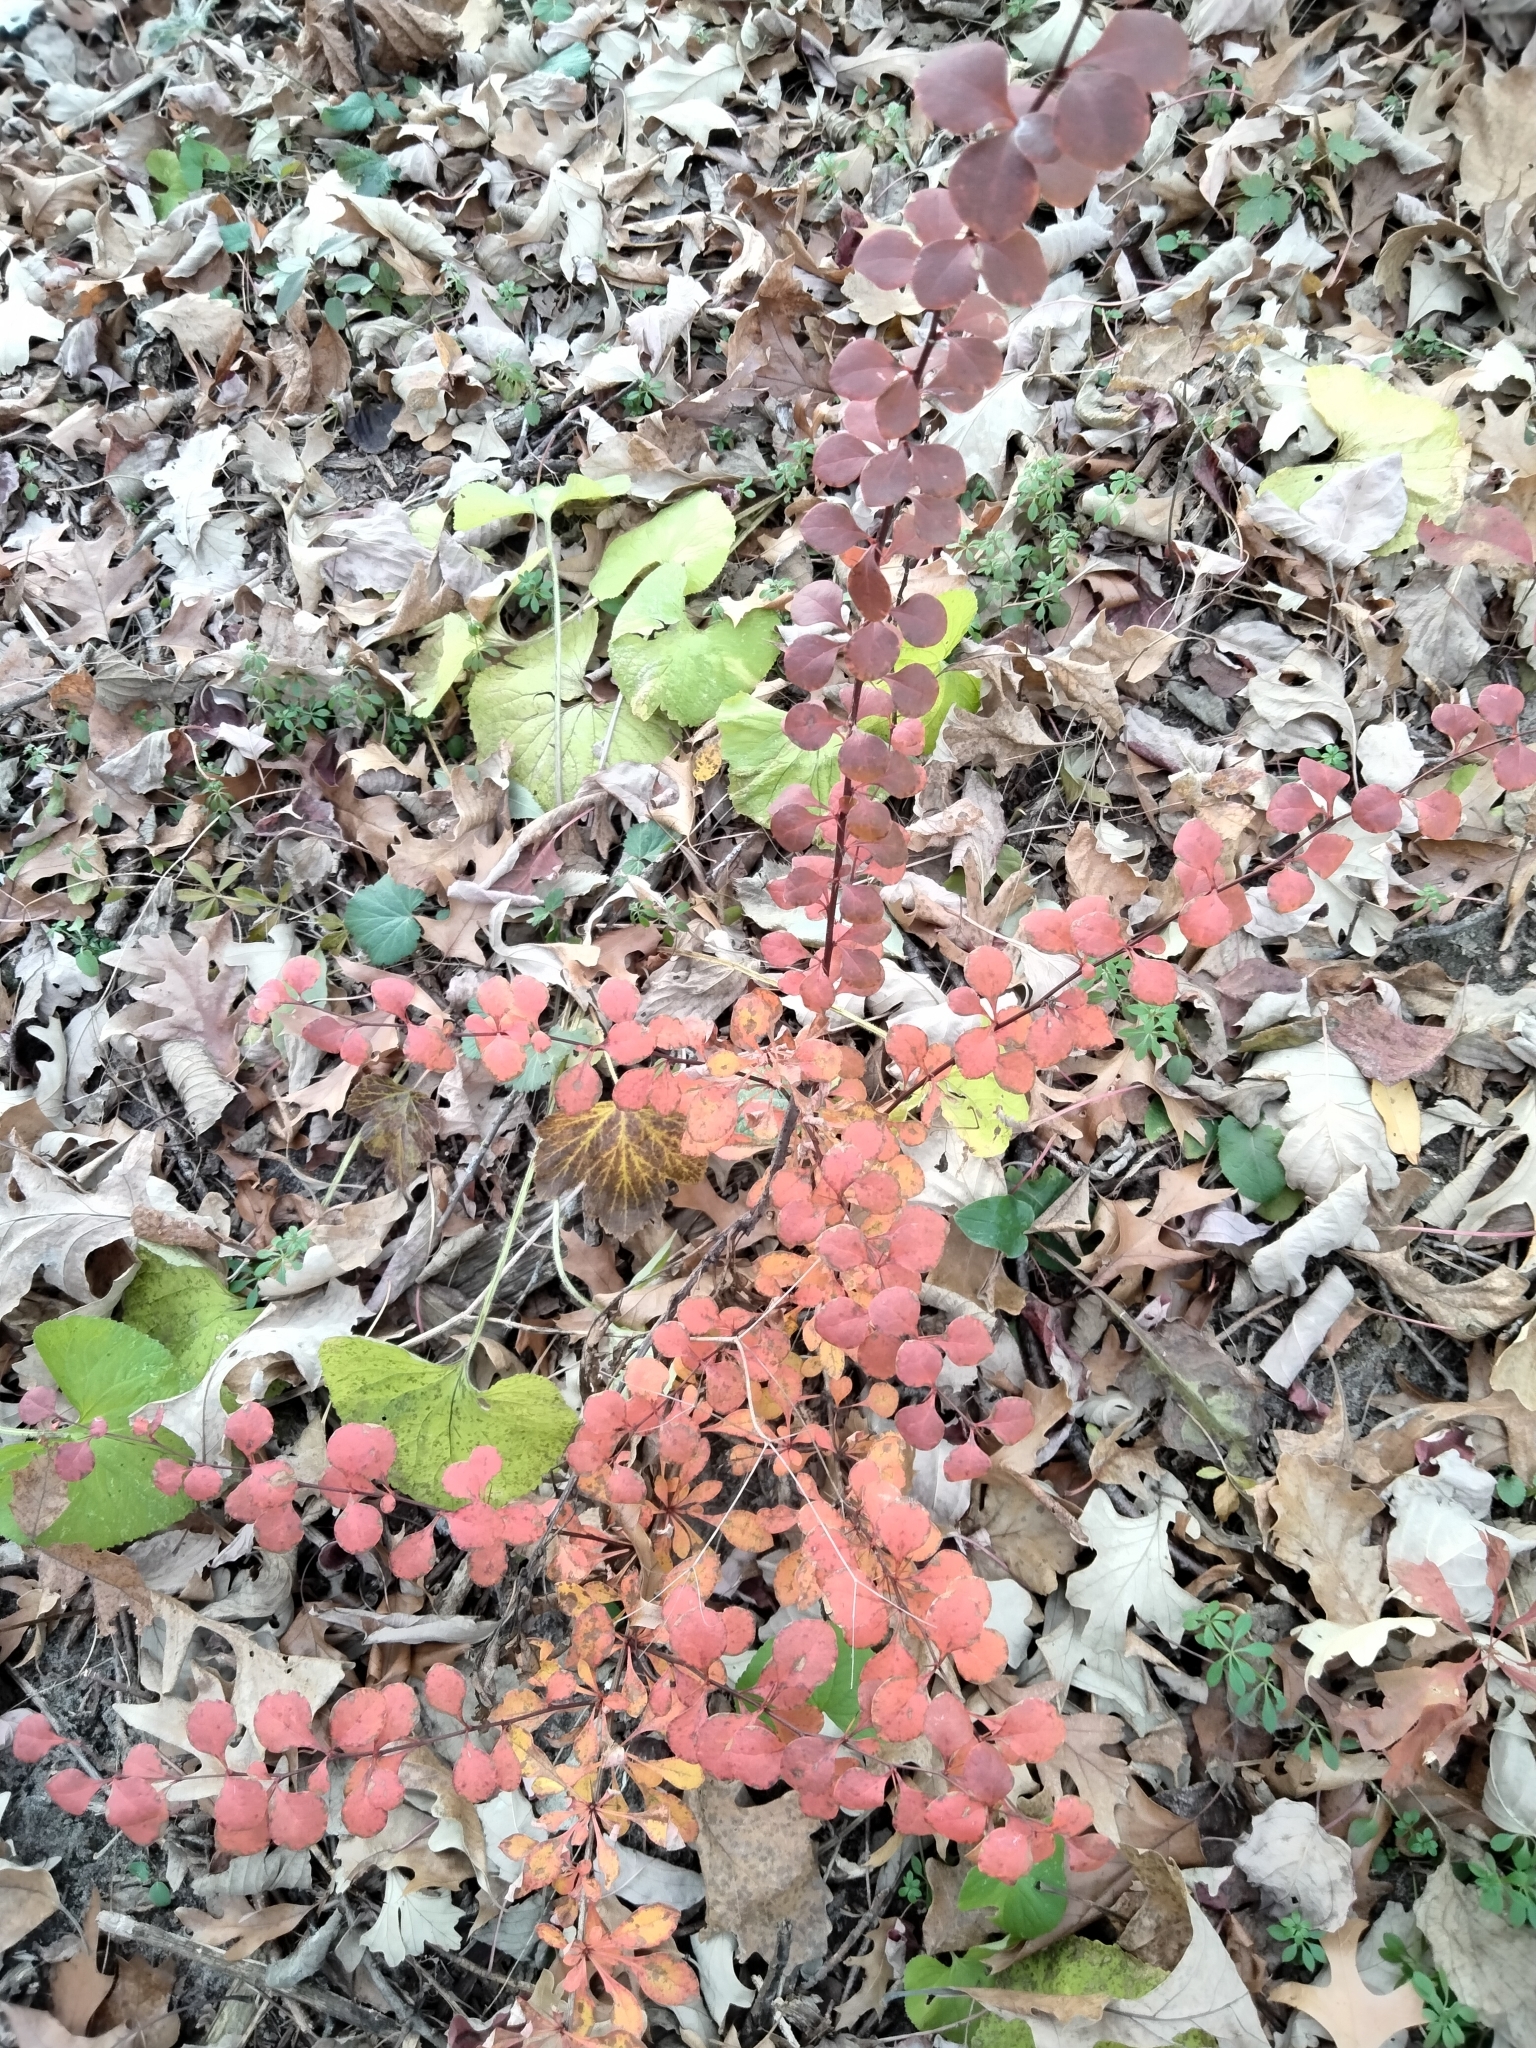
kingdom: Plantae
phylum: Tracheophyta
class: Magnoliopsida
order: Ranunculales
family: Berberidaceae
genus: Berberis
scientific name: Berberis thunbergii
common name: Japanese barberry
